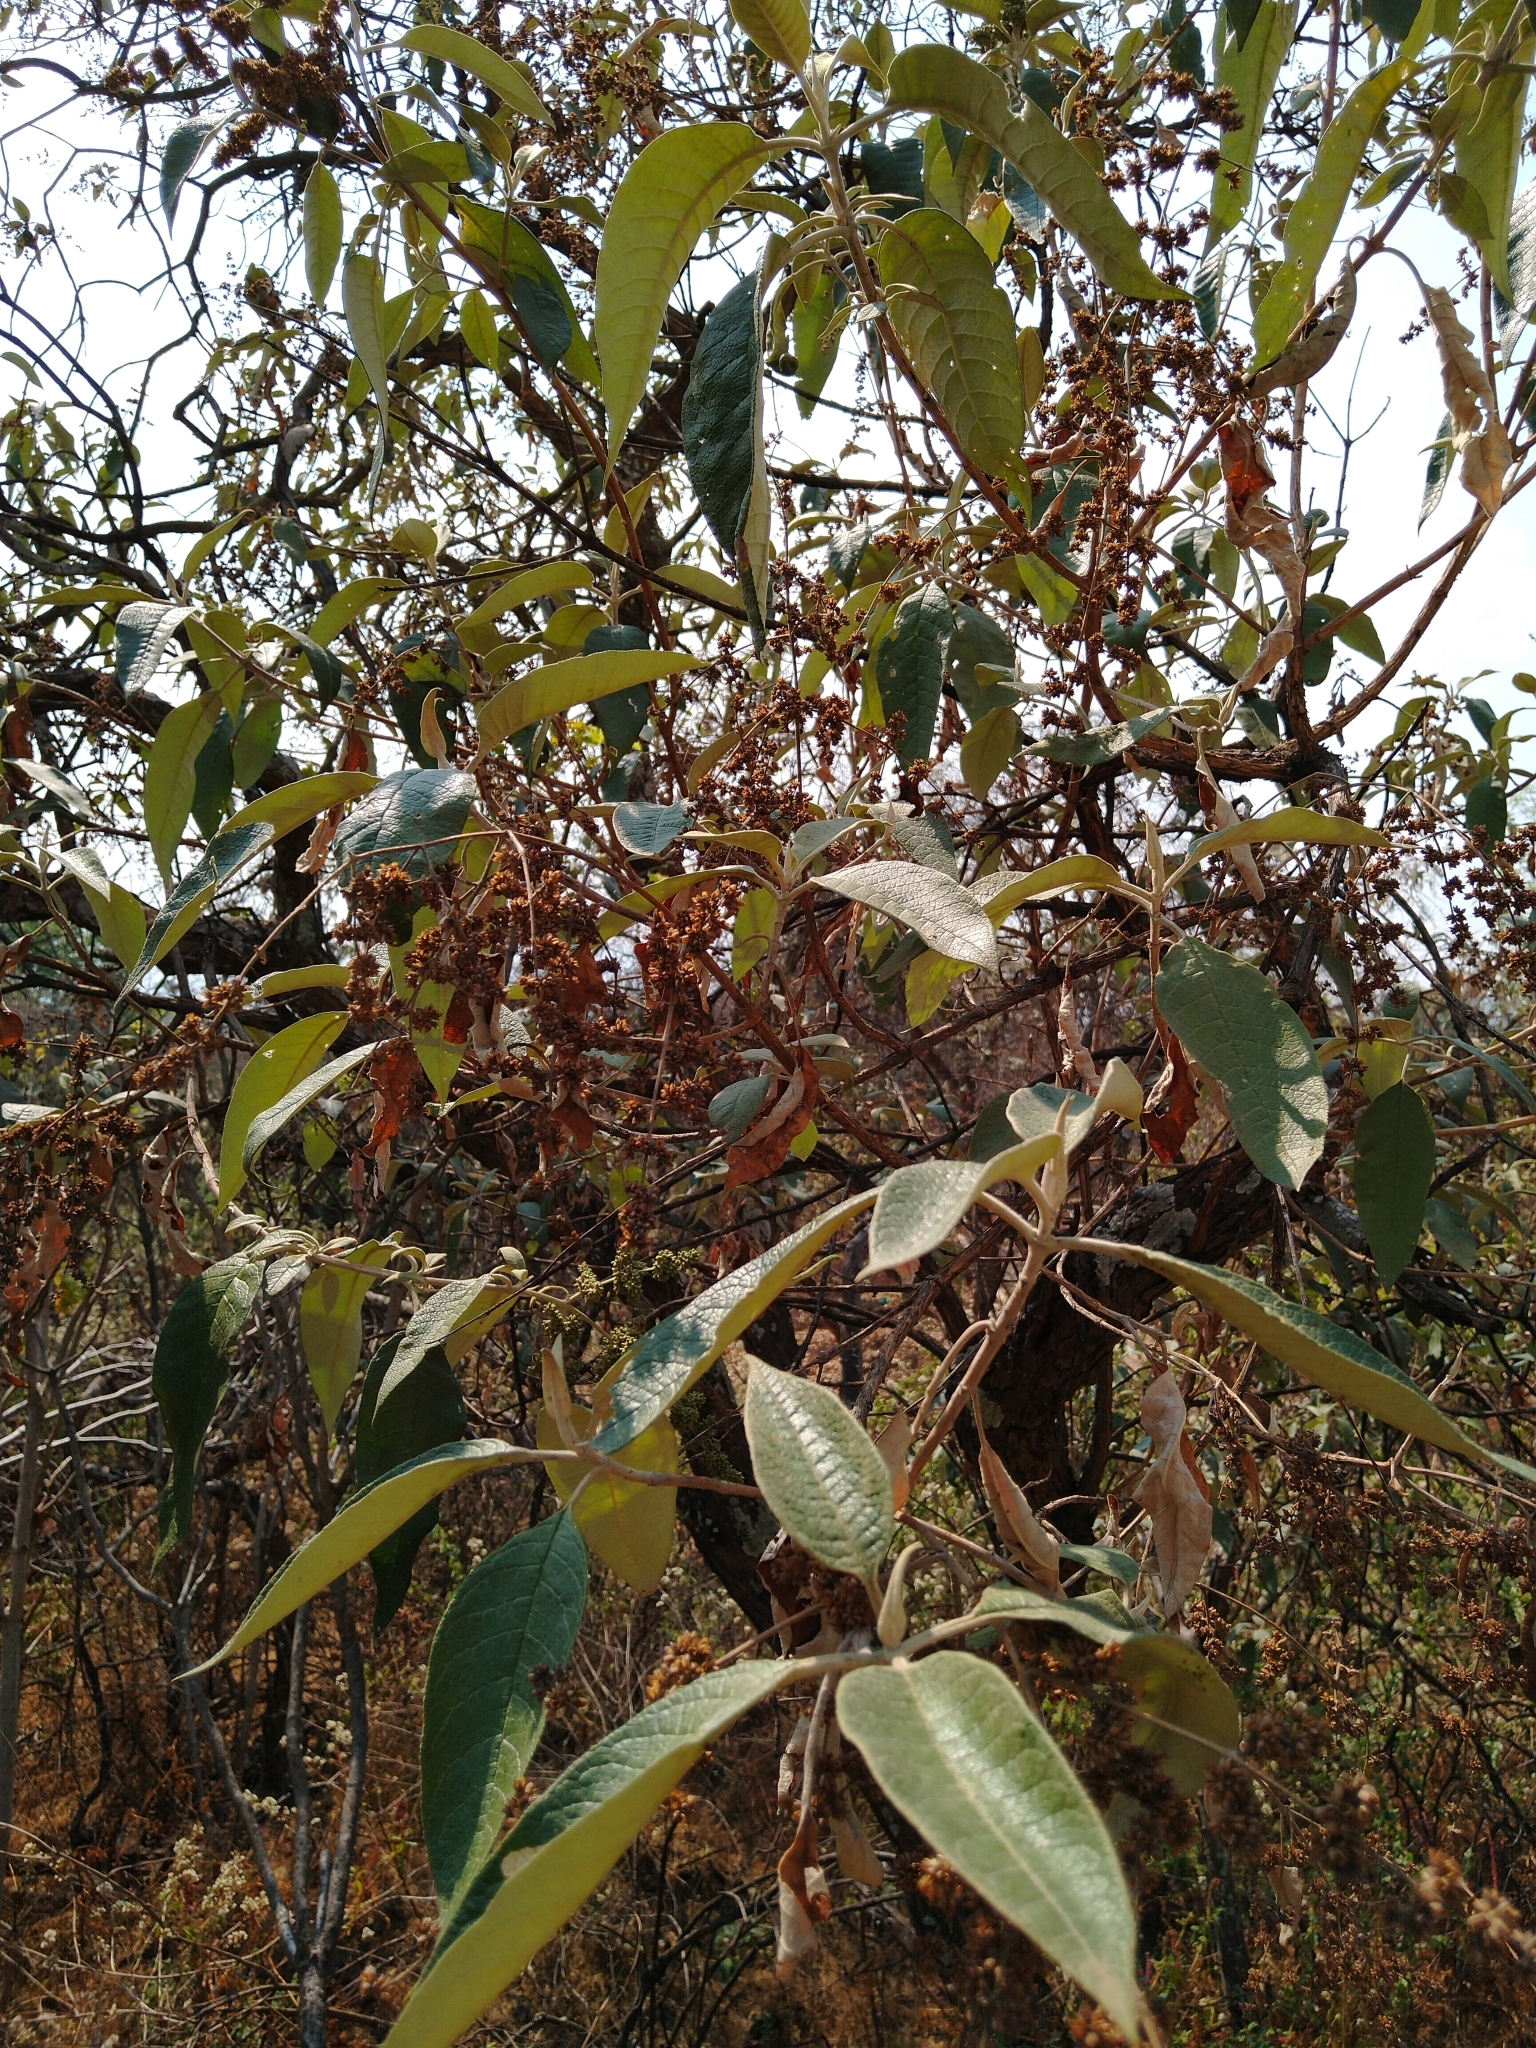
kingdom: Plantae
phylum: Tracheophyta
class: Magnoliopsida
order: Lamiales
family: Scrophulariaceae
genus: Buddleja
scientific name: Buddleja cordata
